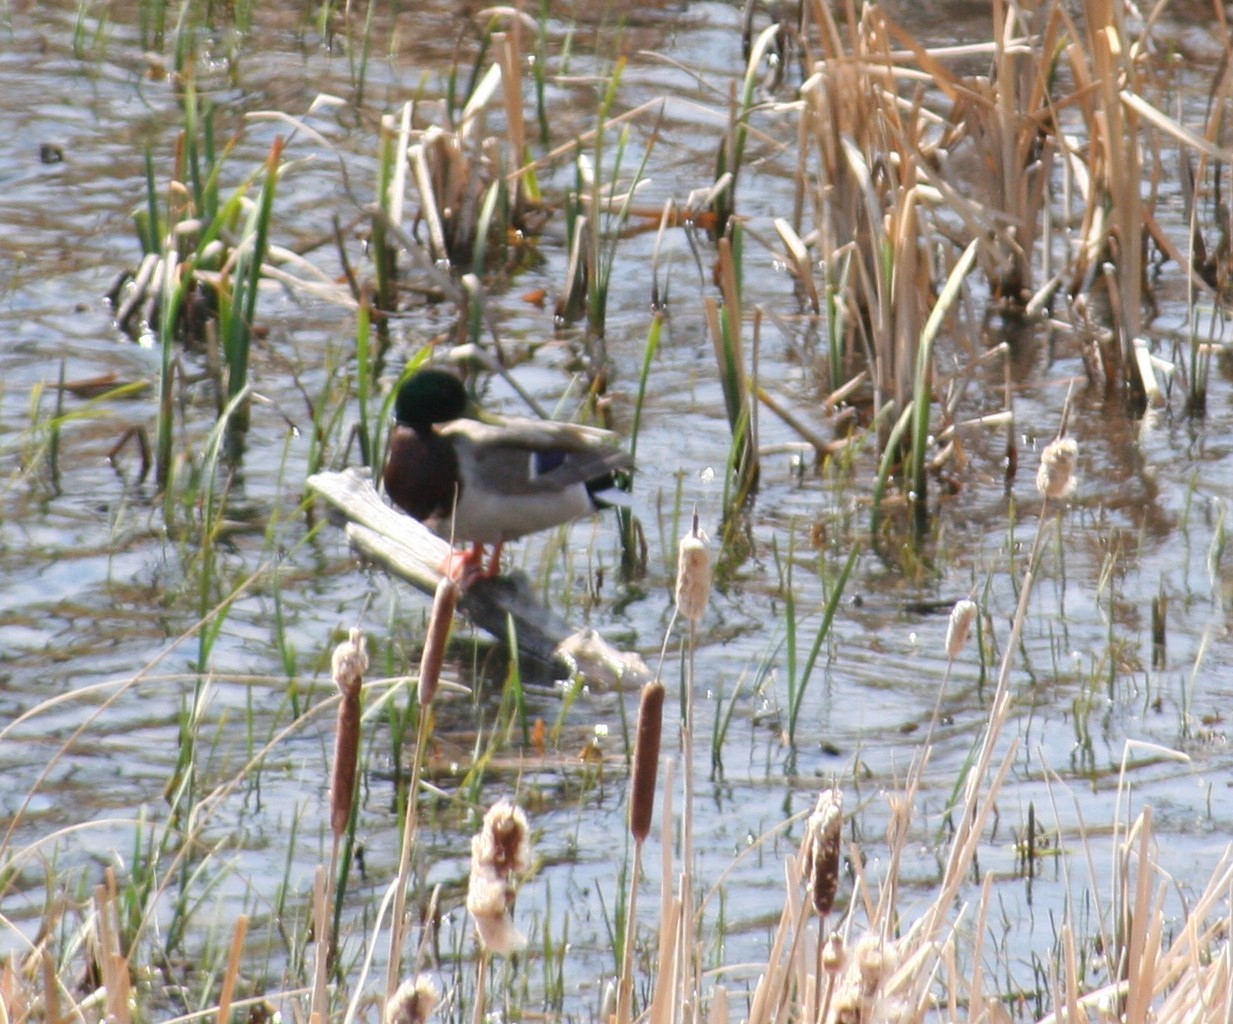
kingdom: Animalia
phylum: Chordata
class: Aves
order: Anseriformes
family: Anatidae
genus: Anas
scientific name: Anas platyrhynchos
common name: Mallard
